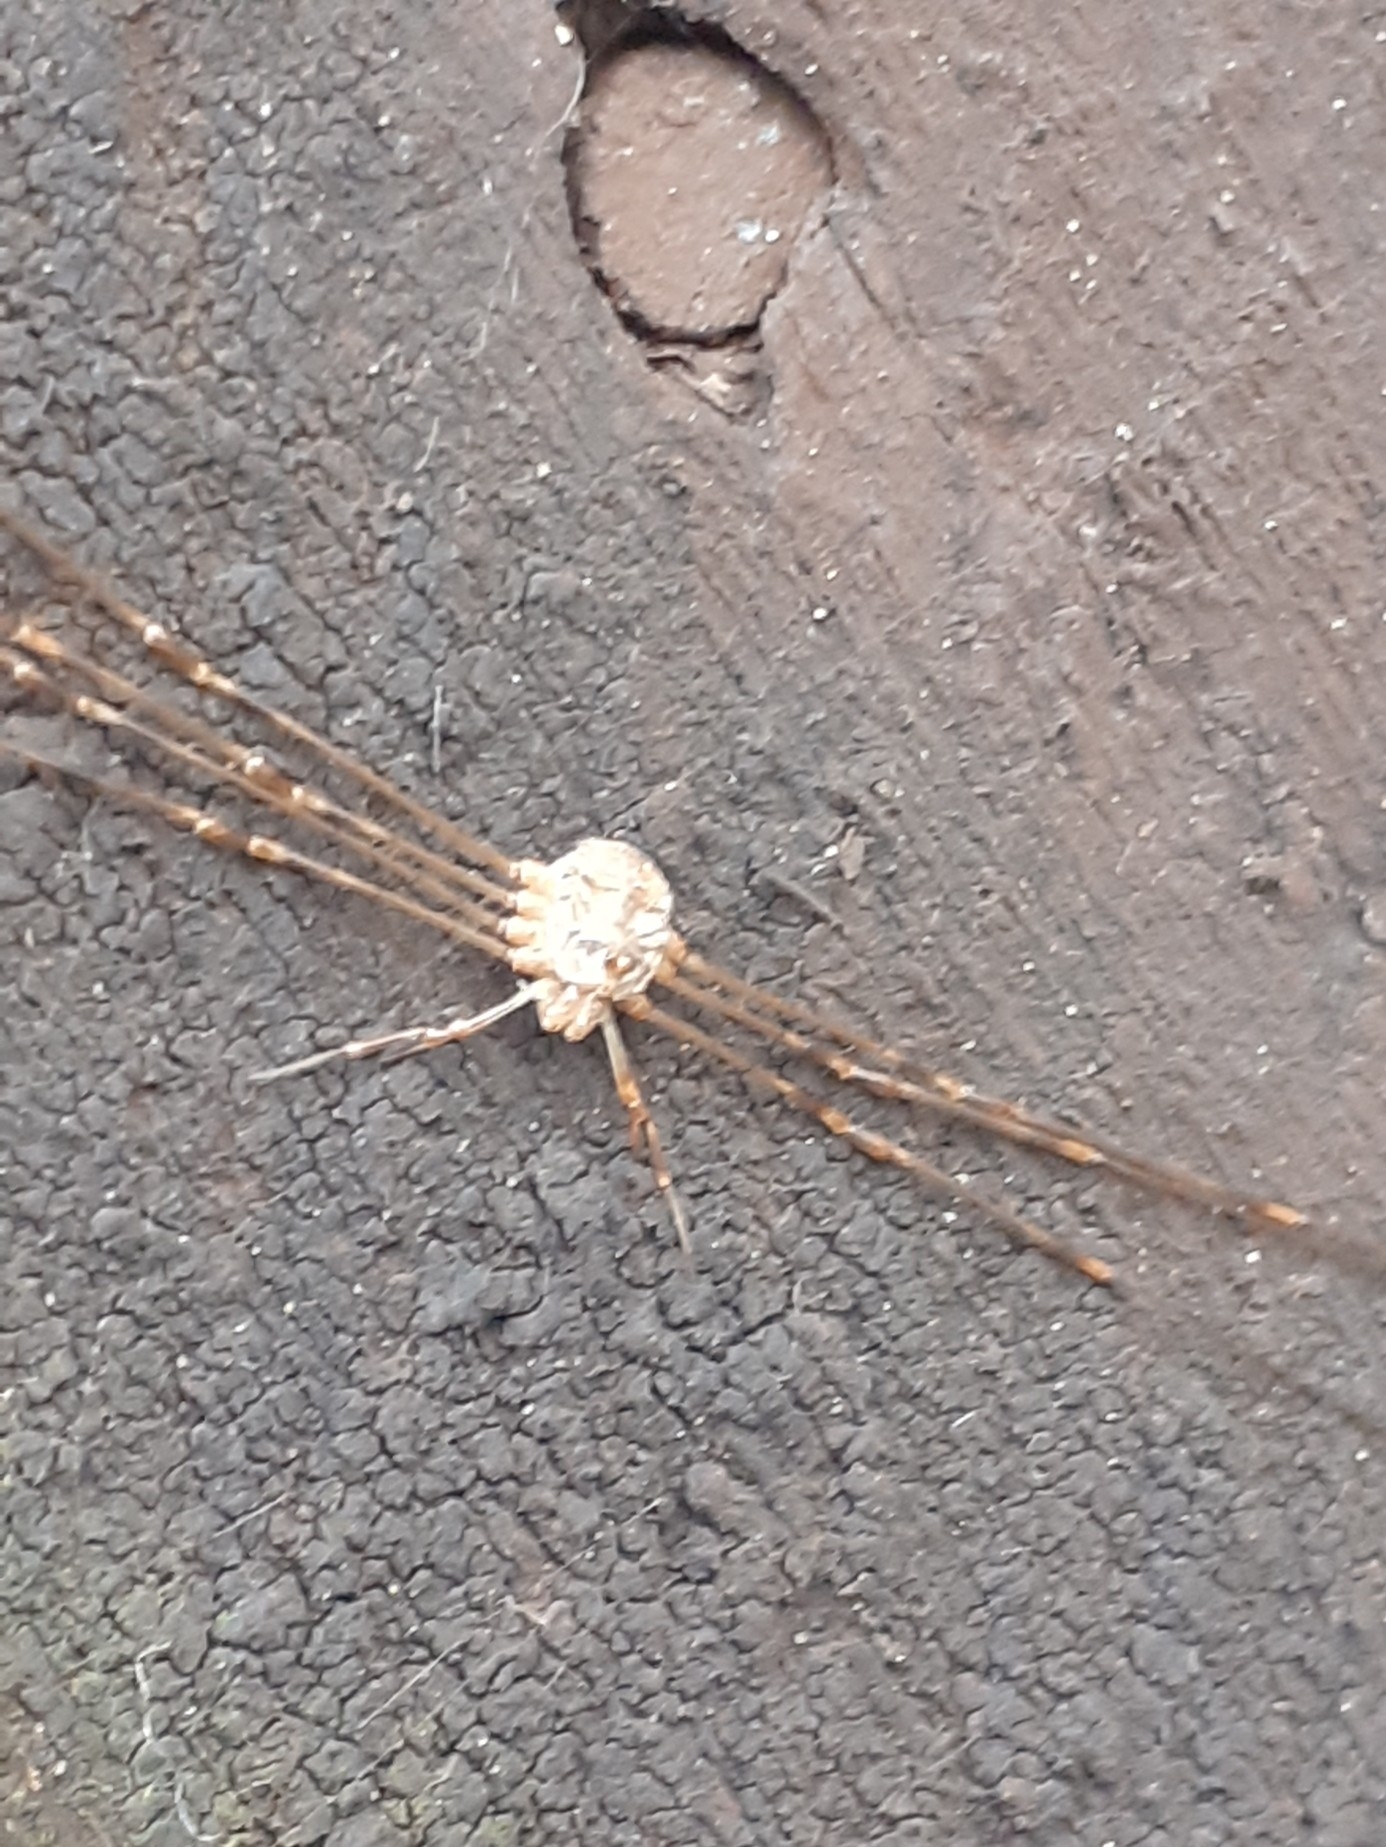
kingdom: Animalia
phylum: Arthropoda
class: Arachnida
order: Opiliones
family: Phalangiidae
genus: Dicranopalpus
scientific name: Dicranopalpus ramosus
